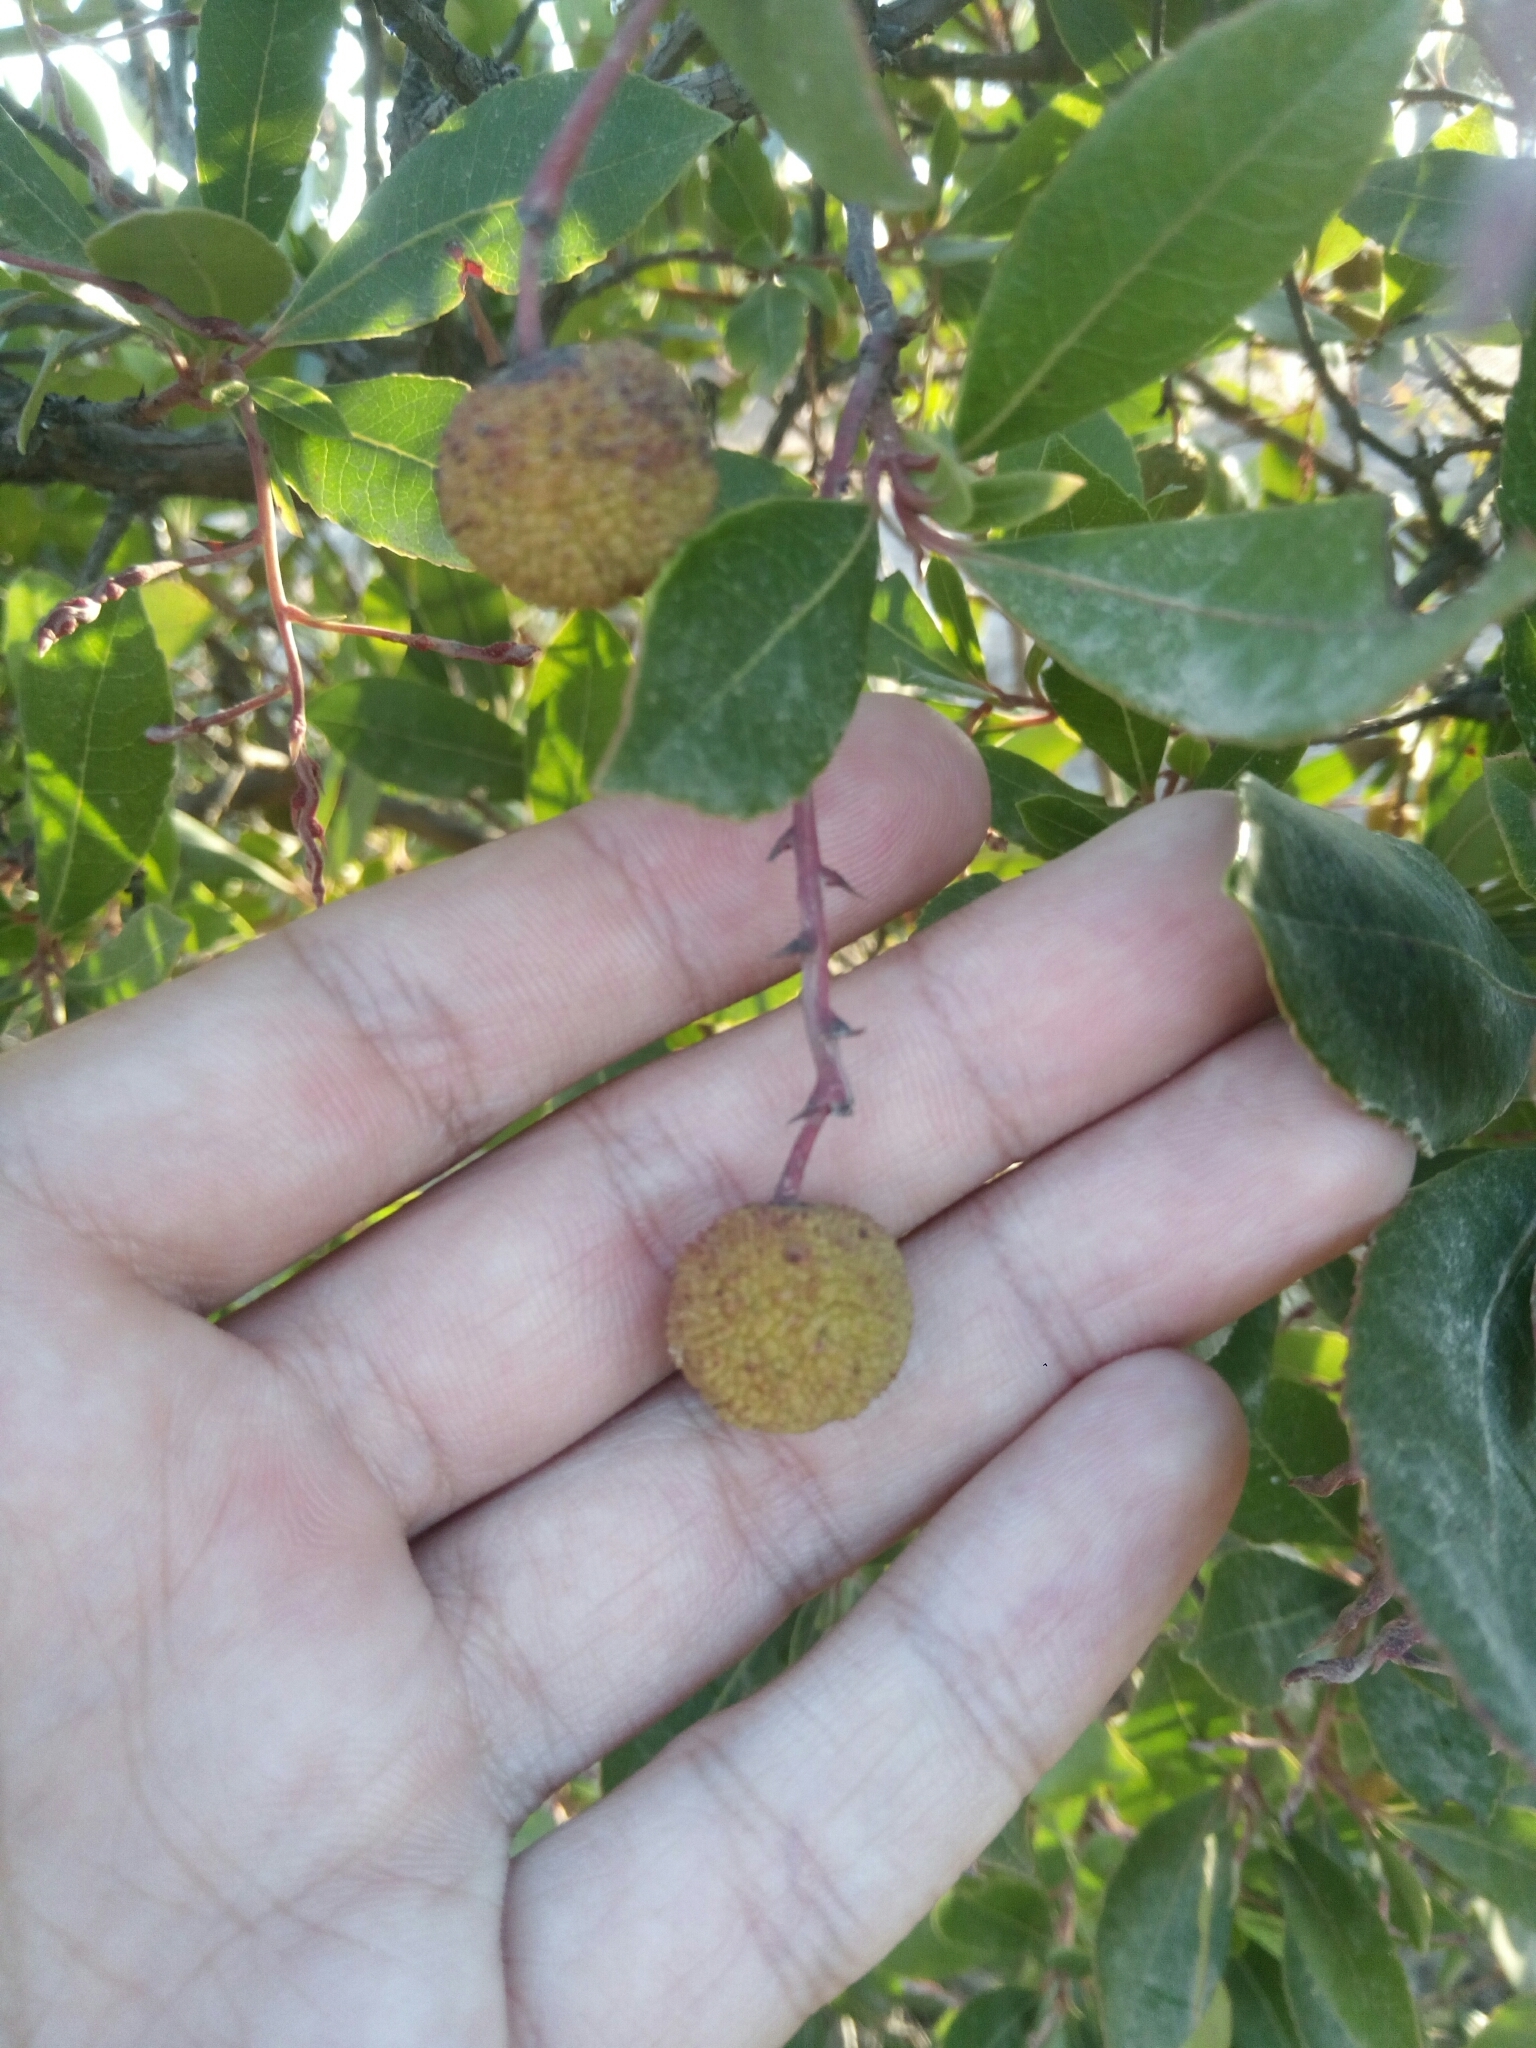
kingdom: Plantae
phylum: Tracheophyta
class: Magnoliopsida
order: Ericales
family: Ericaceae
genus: Arbutus
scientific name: Arbutus unedo
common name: Strawberry-tree
